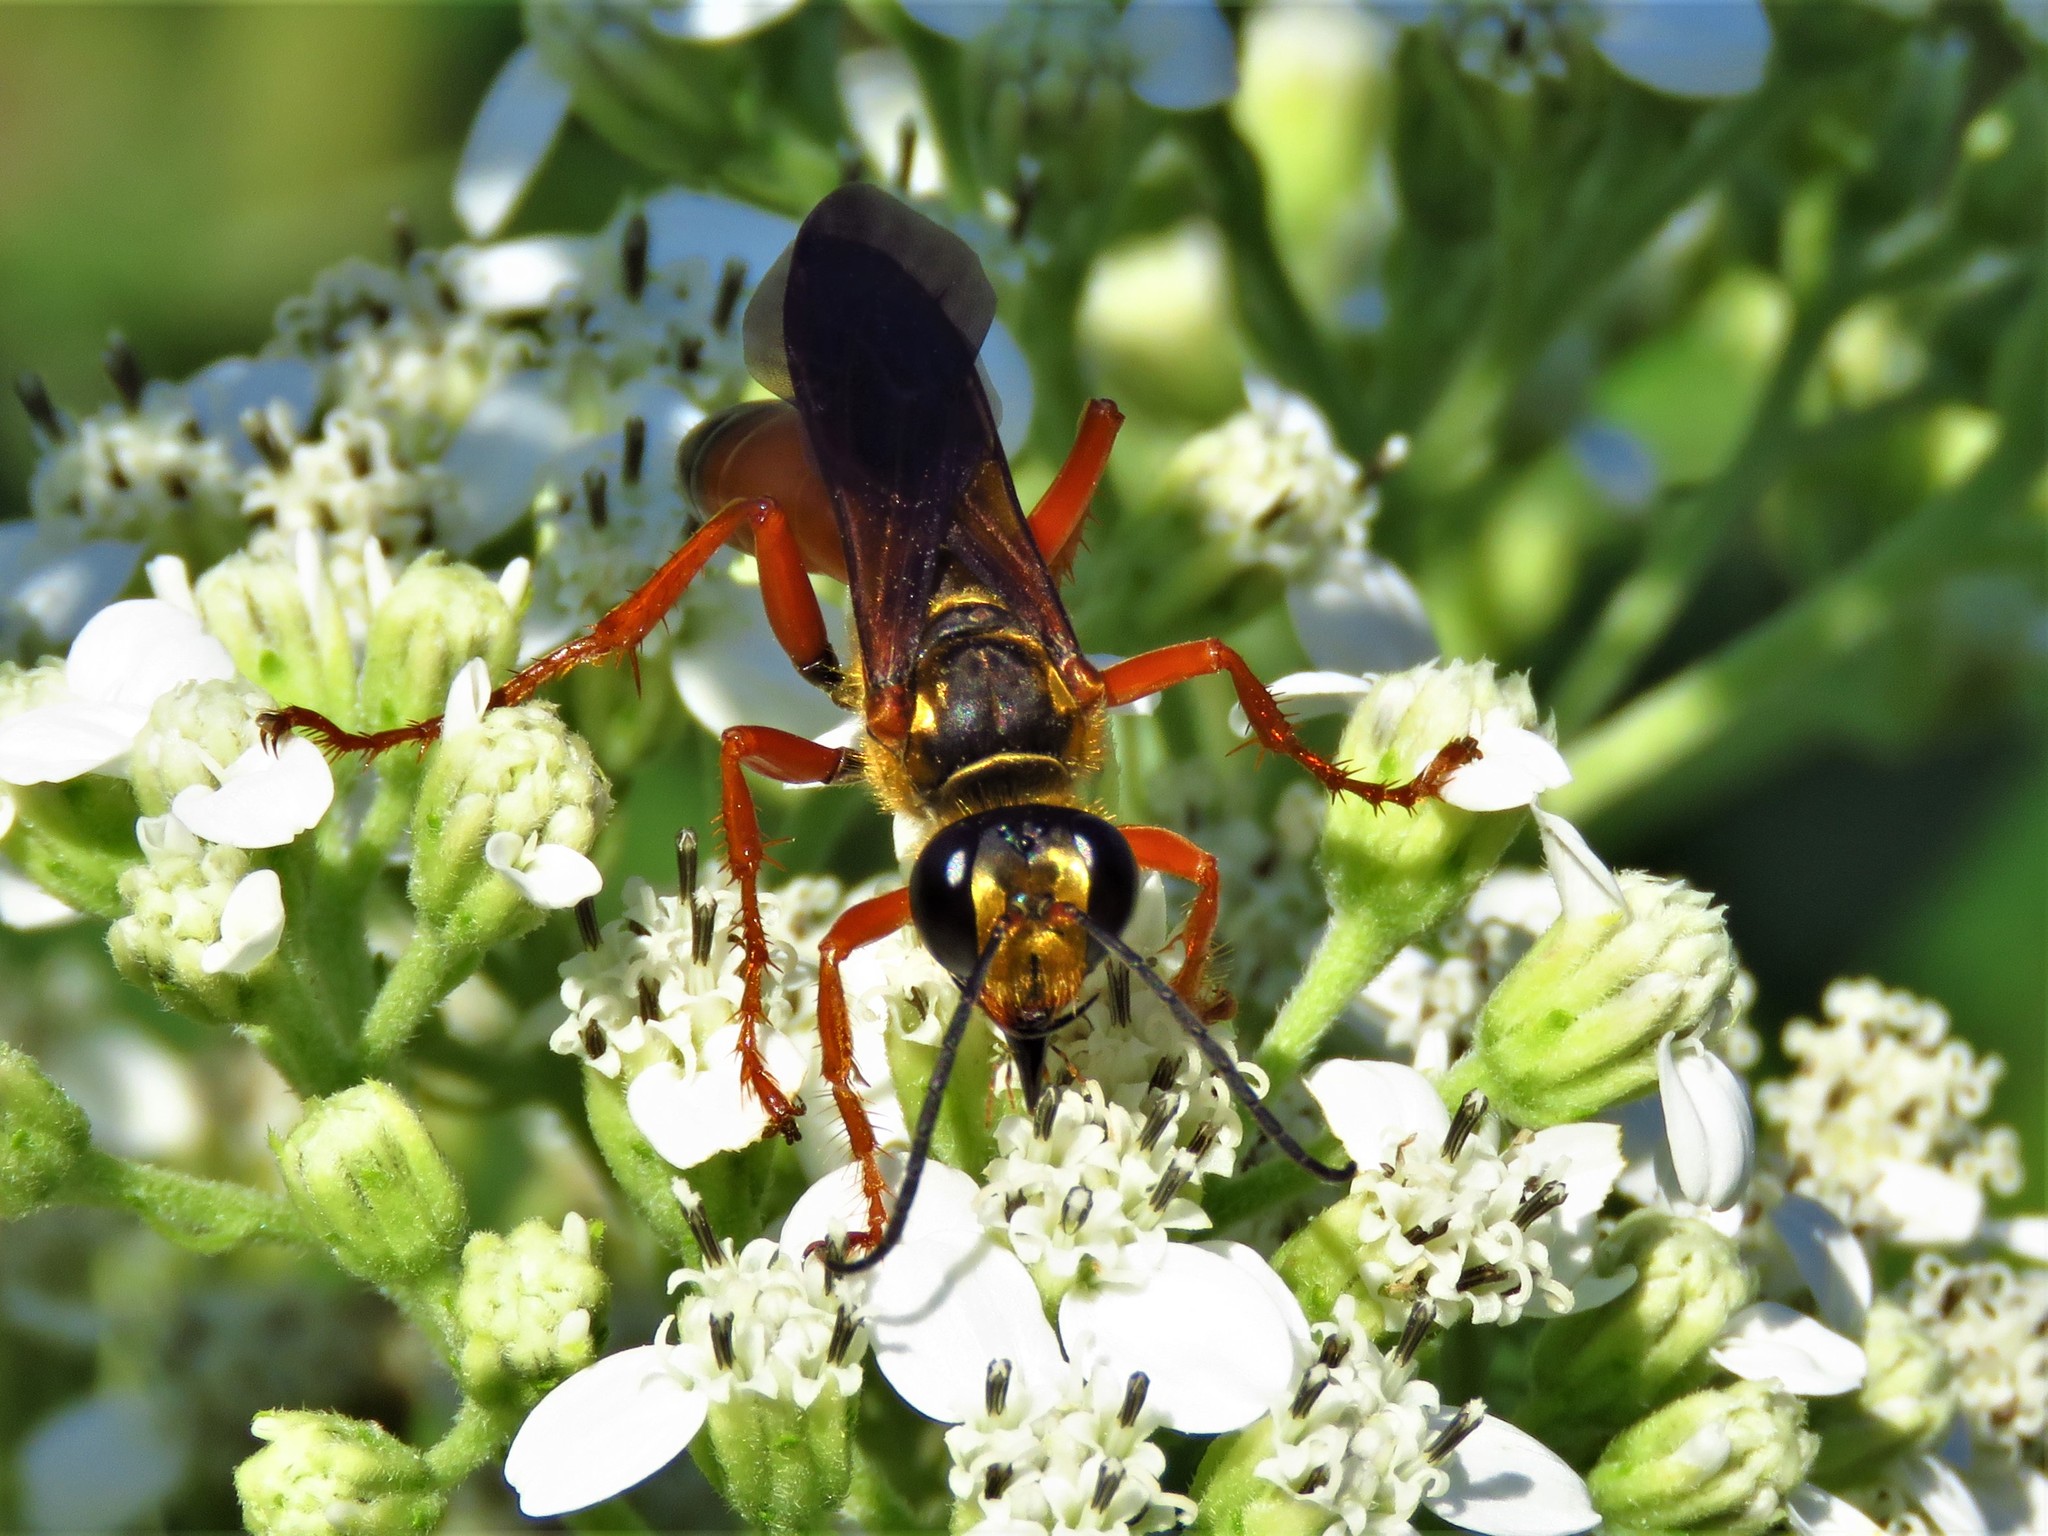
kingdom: Animalia
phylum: Arthropoda
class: Insecta
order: Hymenoptera
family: Sphecidae
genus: Sphex
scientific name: Sphex ichneumoneus
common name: Great golden digger wasp
